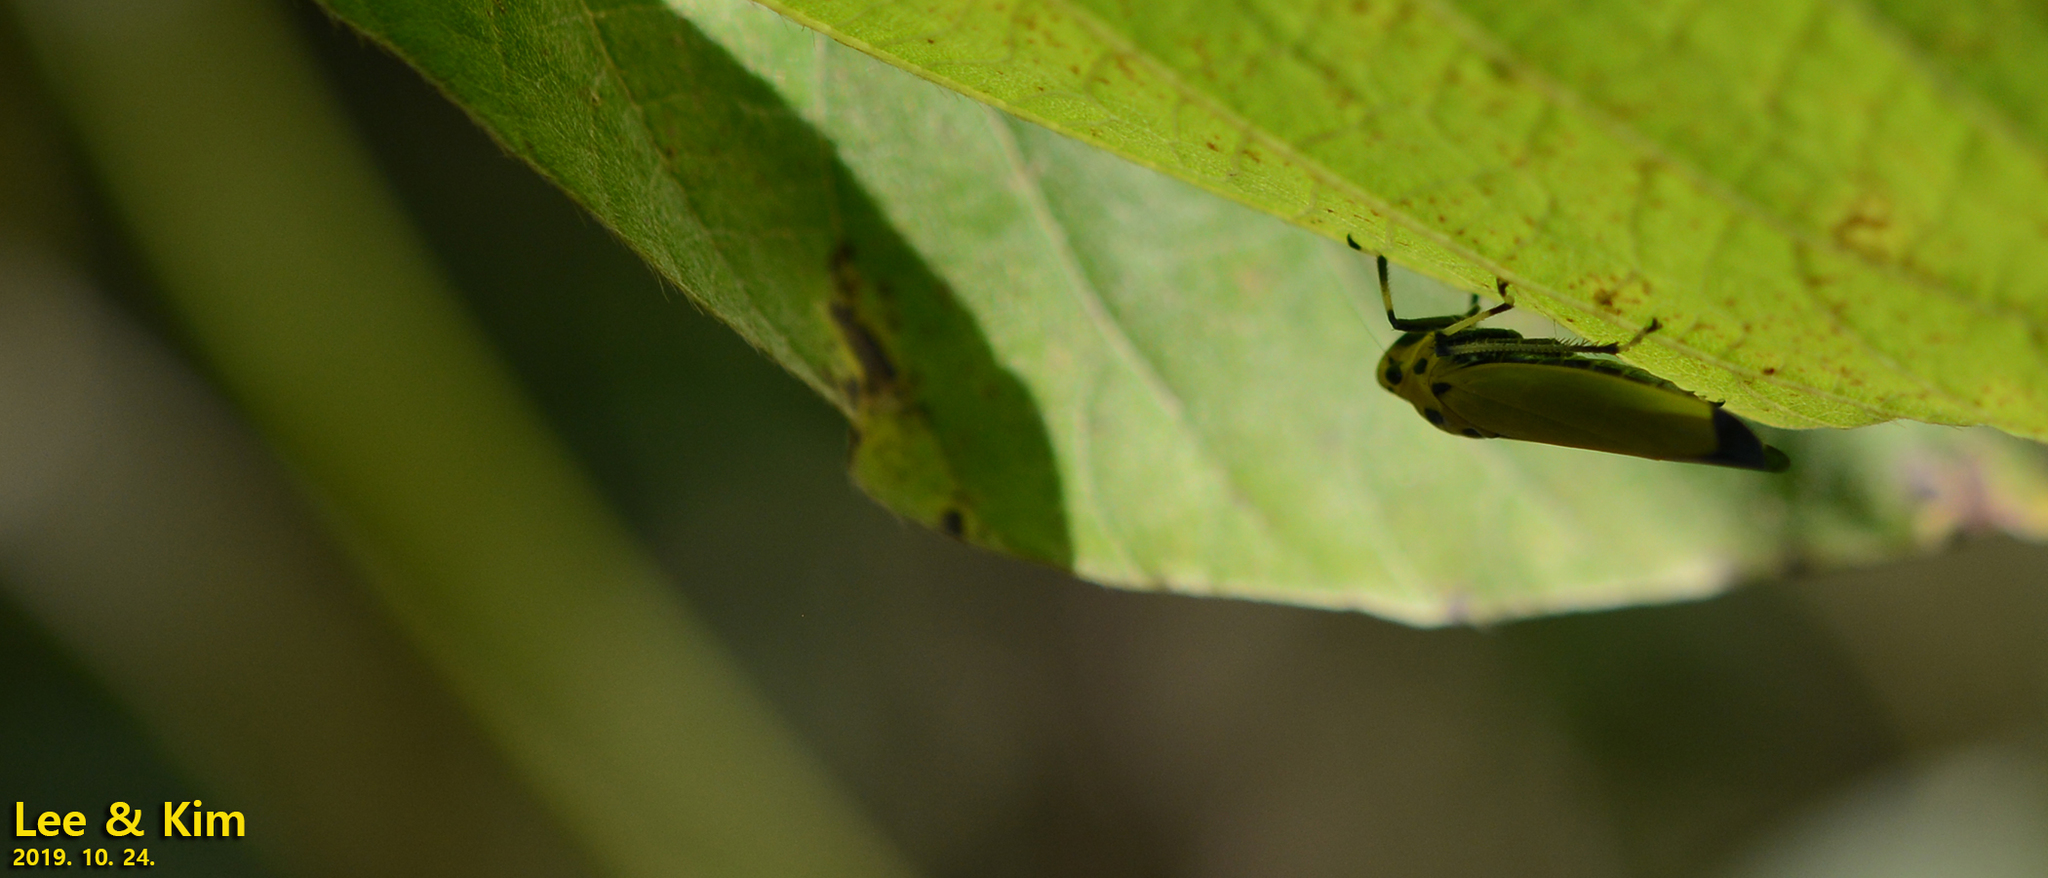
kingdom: Animalia
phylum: Arthropoda
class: Insecta
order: Hemiptera
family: Cicadellidae
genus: Bothrogonia
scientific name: Bothrogonia ferruginea
